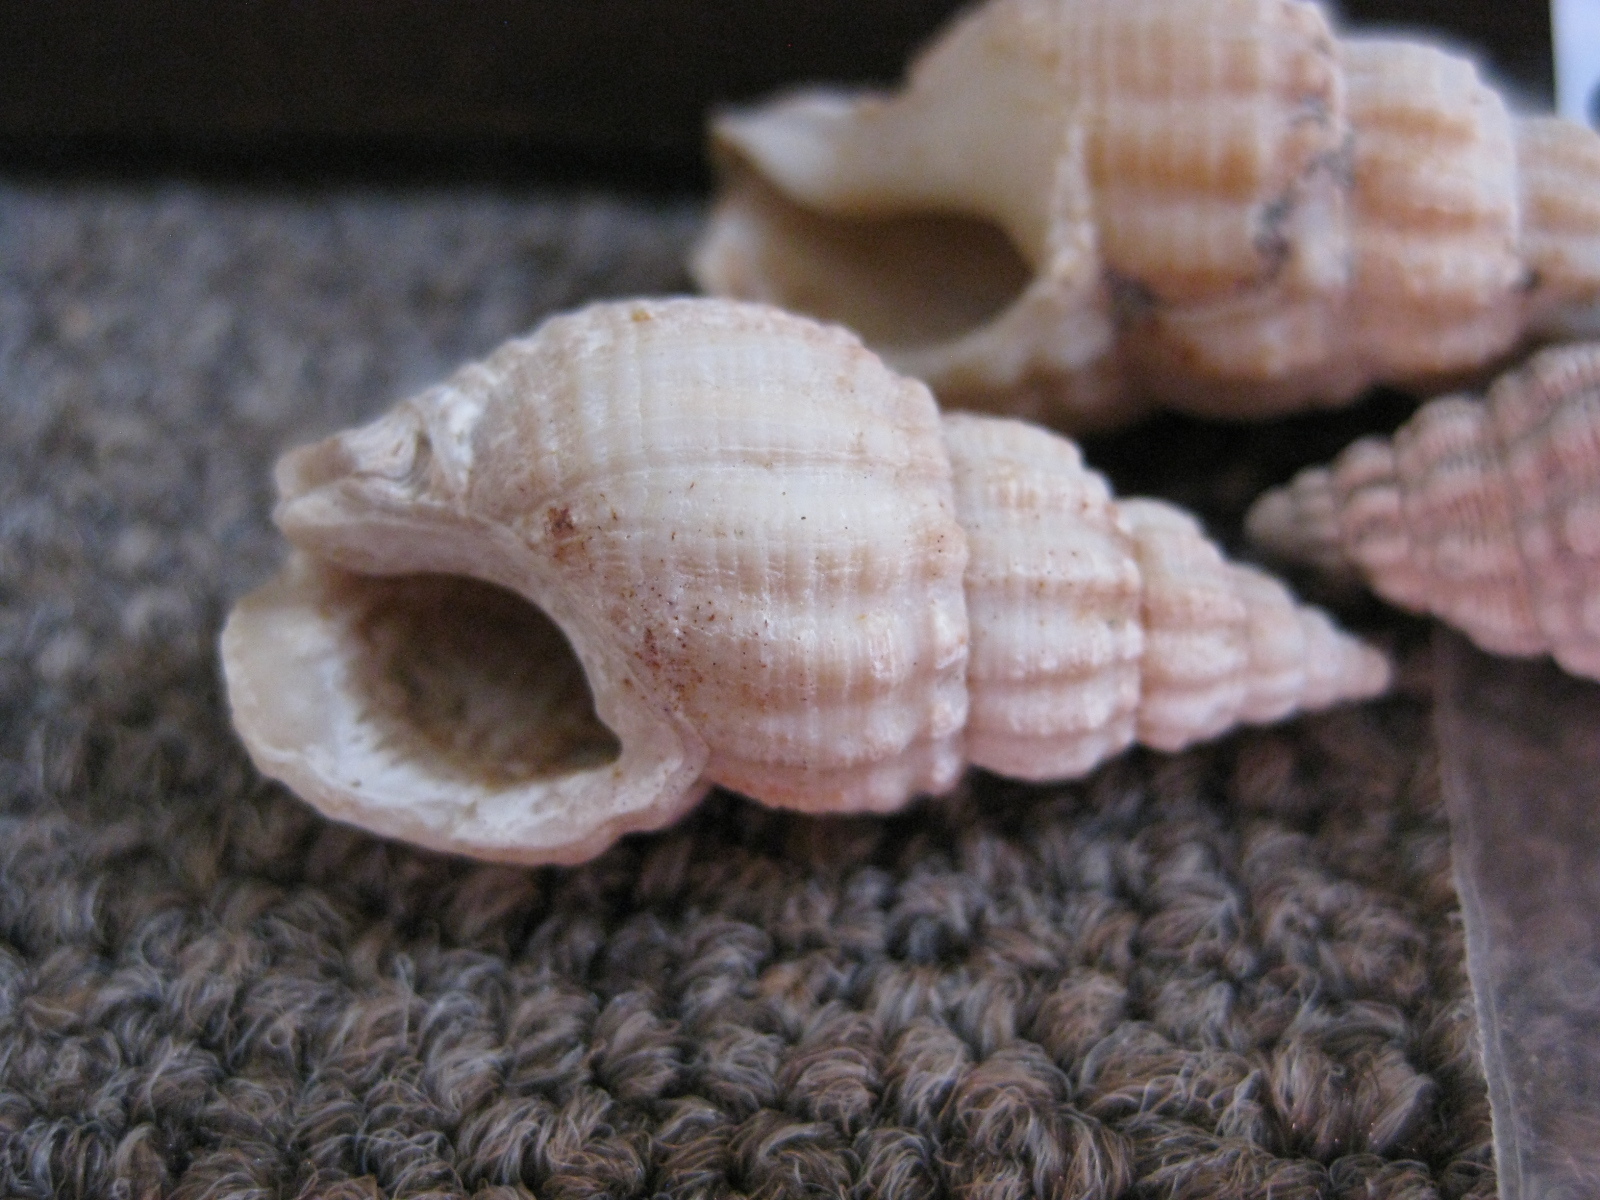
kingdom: Animalia
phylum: Mollusca
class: Gastropoda
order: Neogastropoda
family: Cominellidae
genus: Cominella
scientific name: Cominella elegantula
